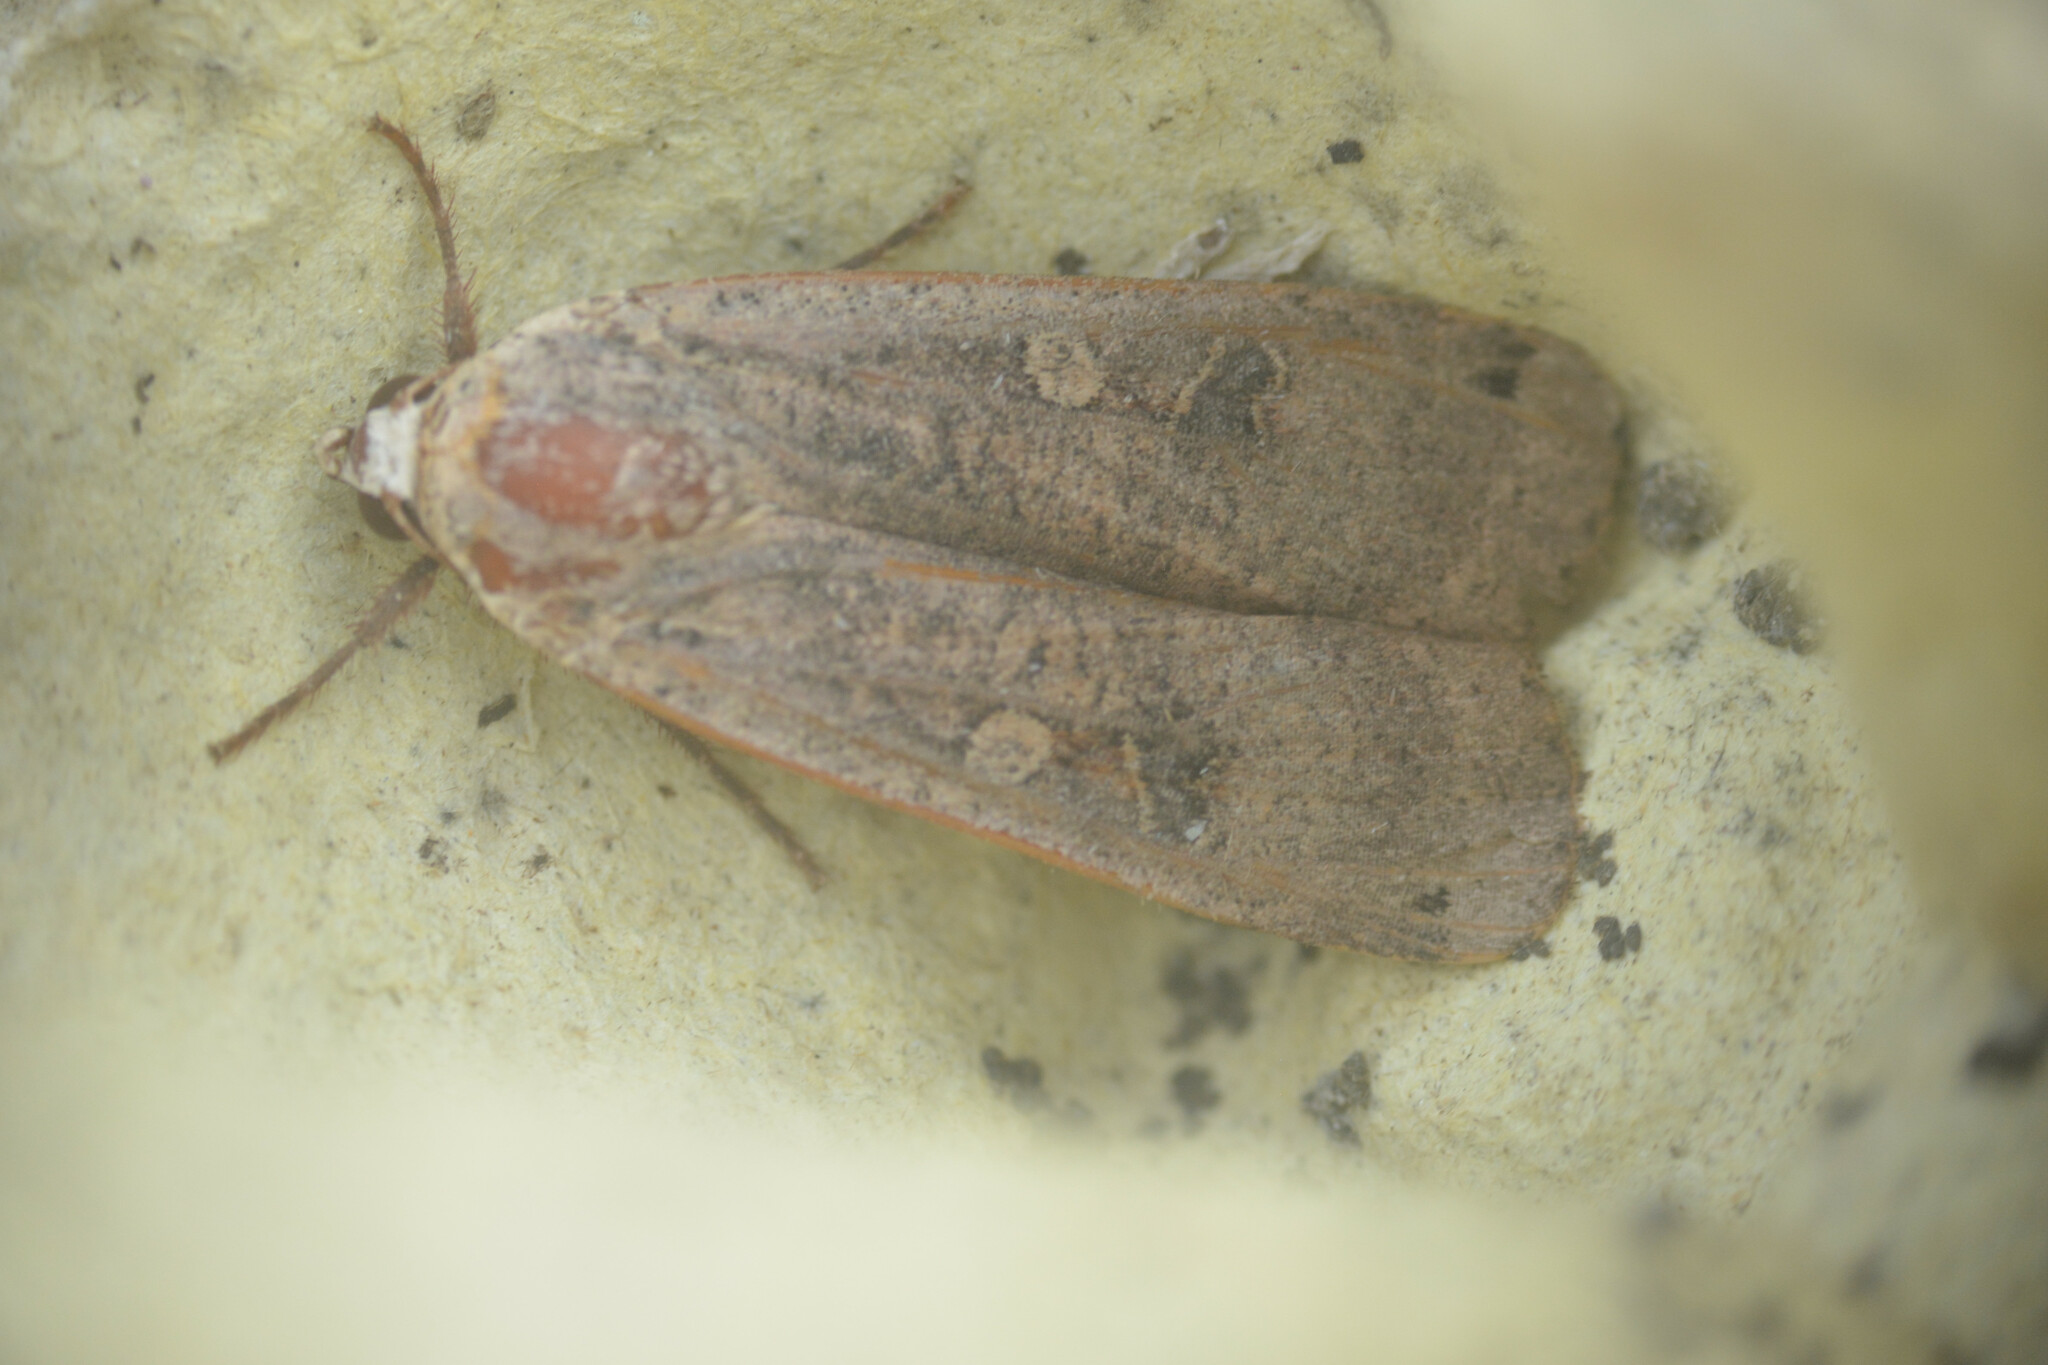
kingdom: Animalia
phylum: Arthropoda
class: Insecta
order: Lepidoptera
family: Noctuidae
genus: Noctua
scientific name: Noctua pronuba
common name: Large yellow underwing
